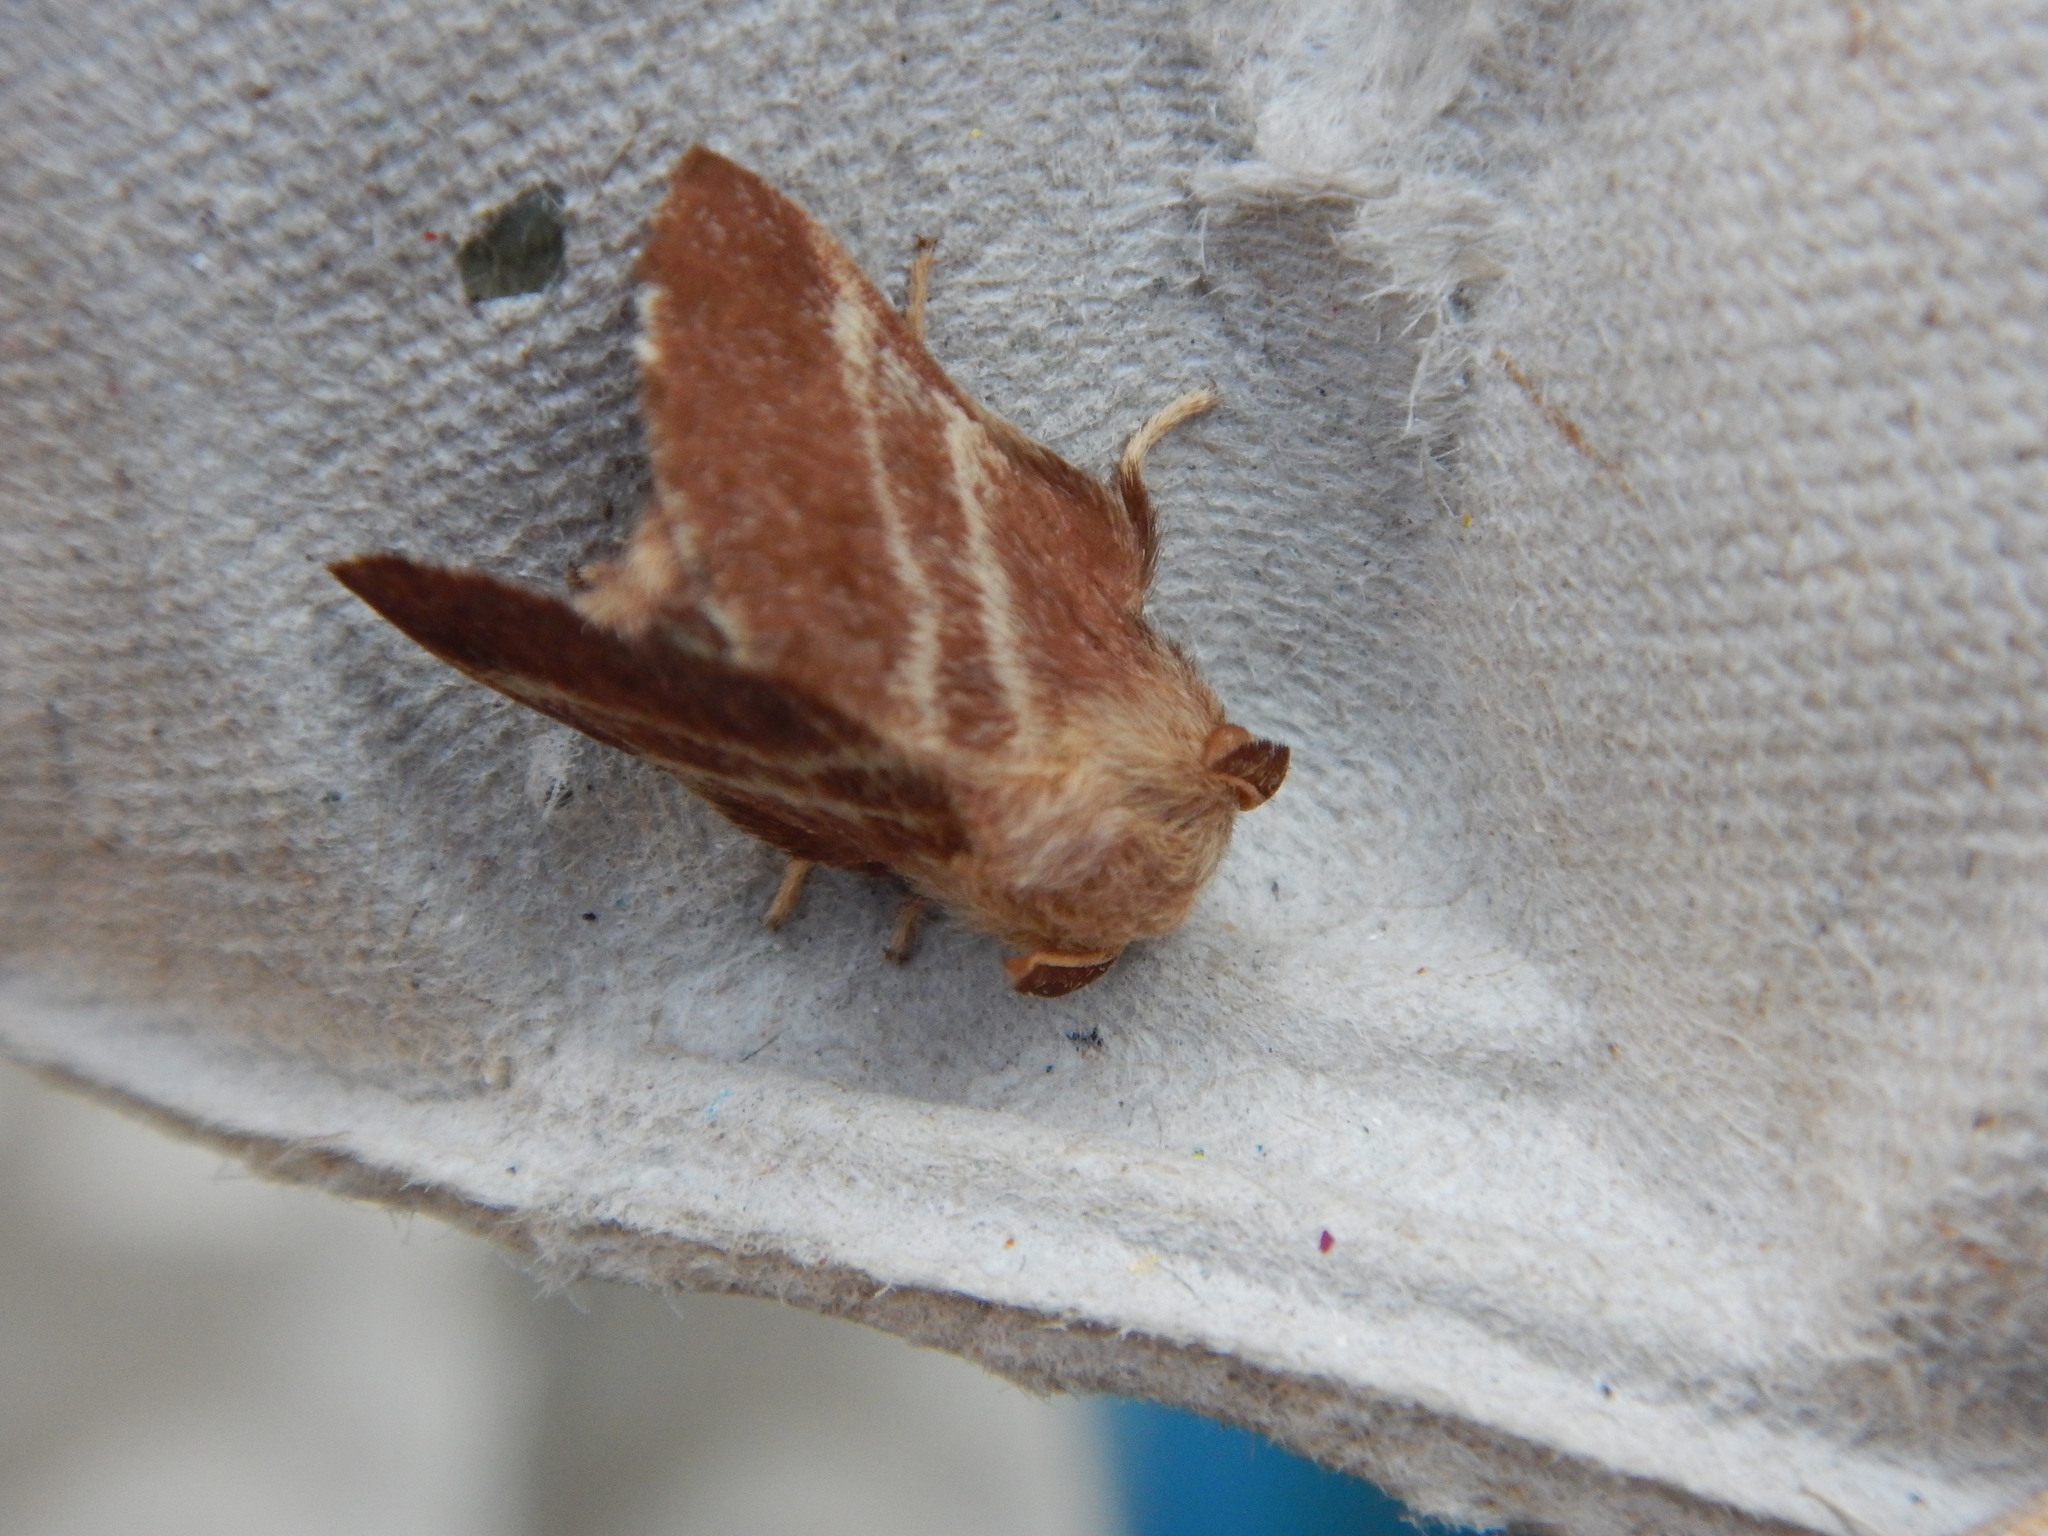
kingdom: Animalia
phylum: Arthropoda
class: Insecta
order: Lepidoptera
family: Lasiocampidae
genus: Malacosoma
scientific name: Malacosoma americana
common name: Eastern tent caterpillar moth
